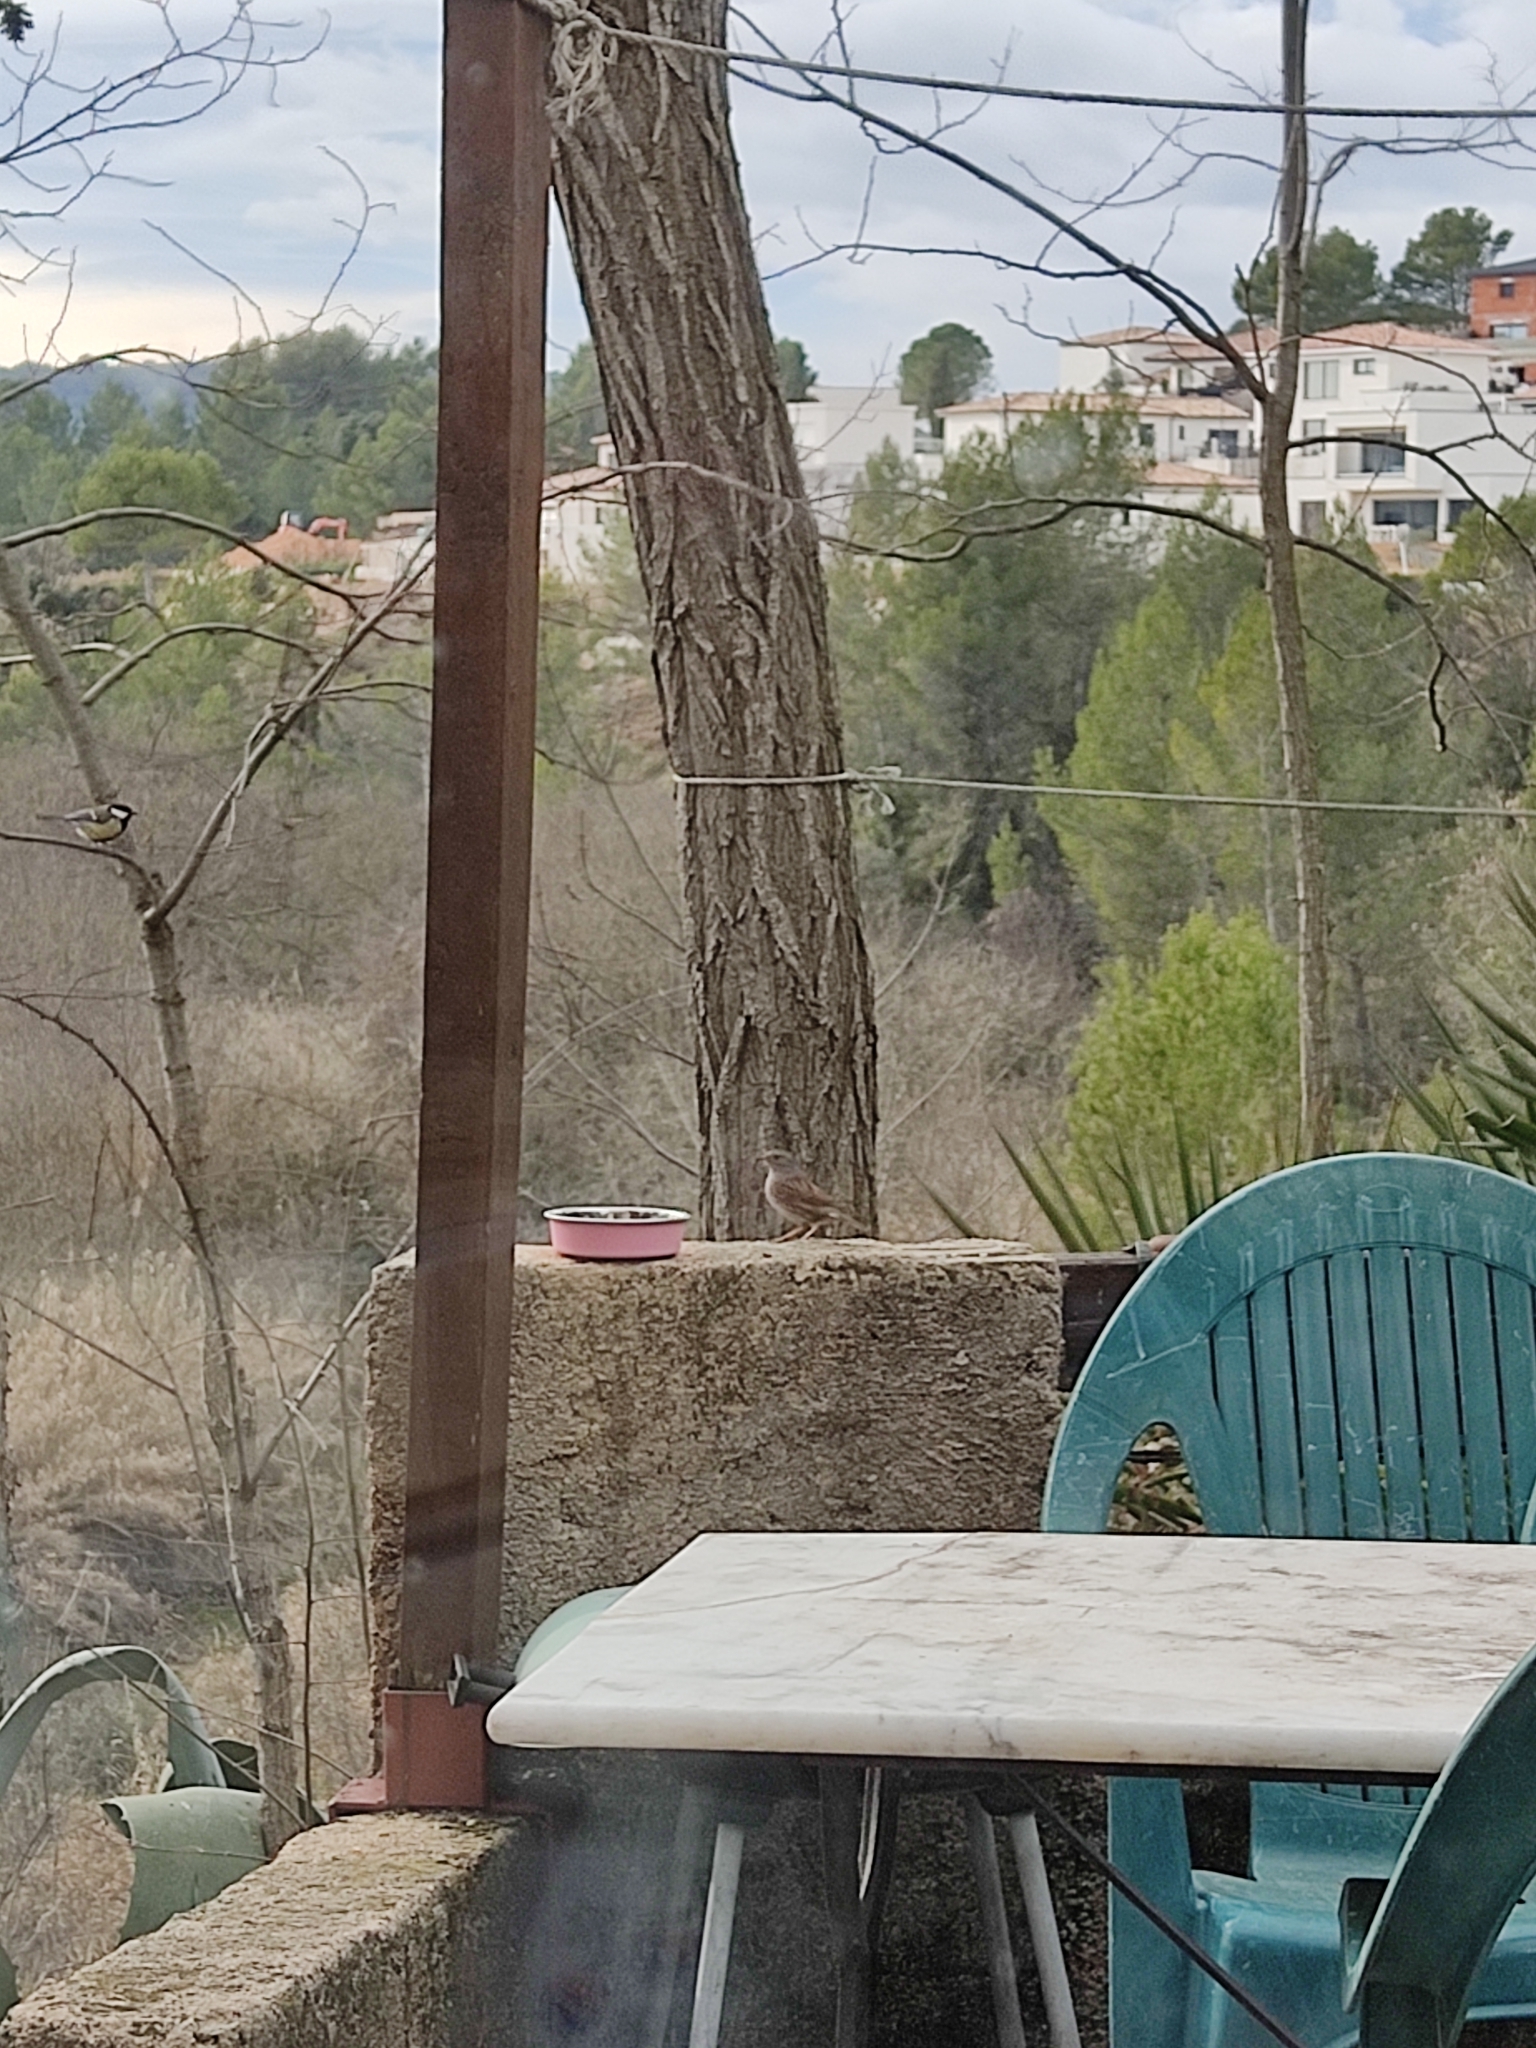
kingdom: Animalia
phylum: Chordata
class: Aves
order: Passeriformes
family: Prunellidae
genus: Prunella
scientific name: Prunella modularis
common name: Dunnock
